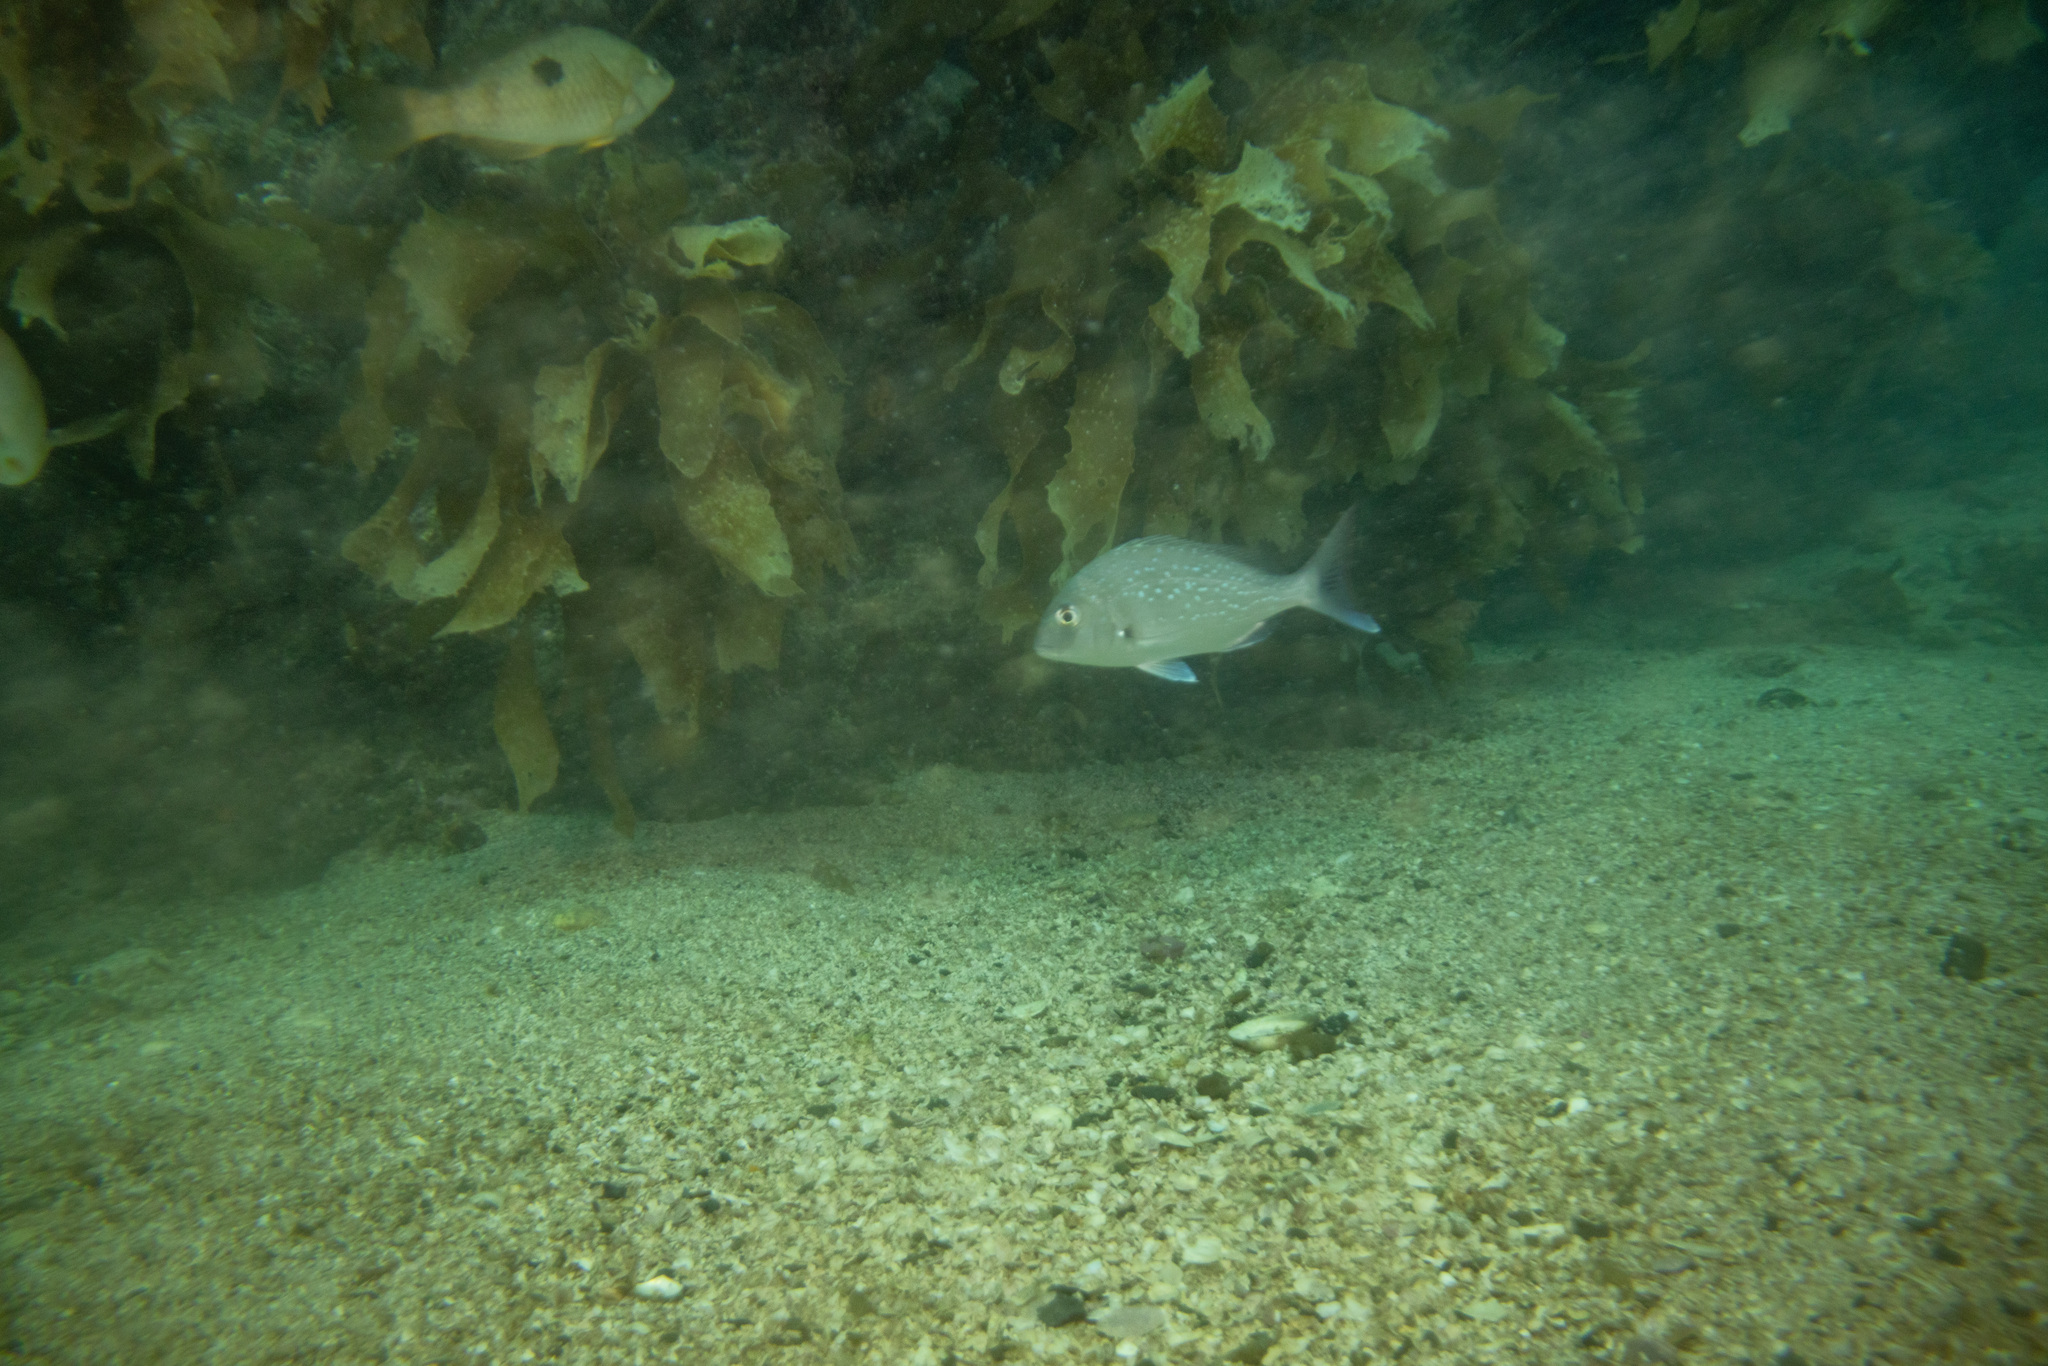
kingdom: Animalia
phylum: Chordata
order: Perciformes
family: Sparidae
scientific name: Sparidae
